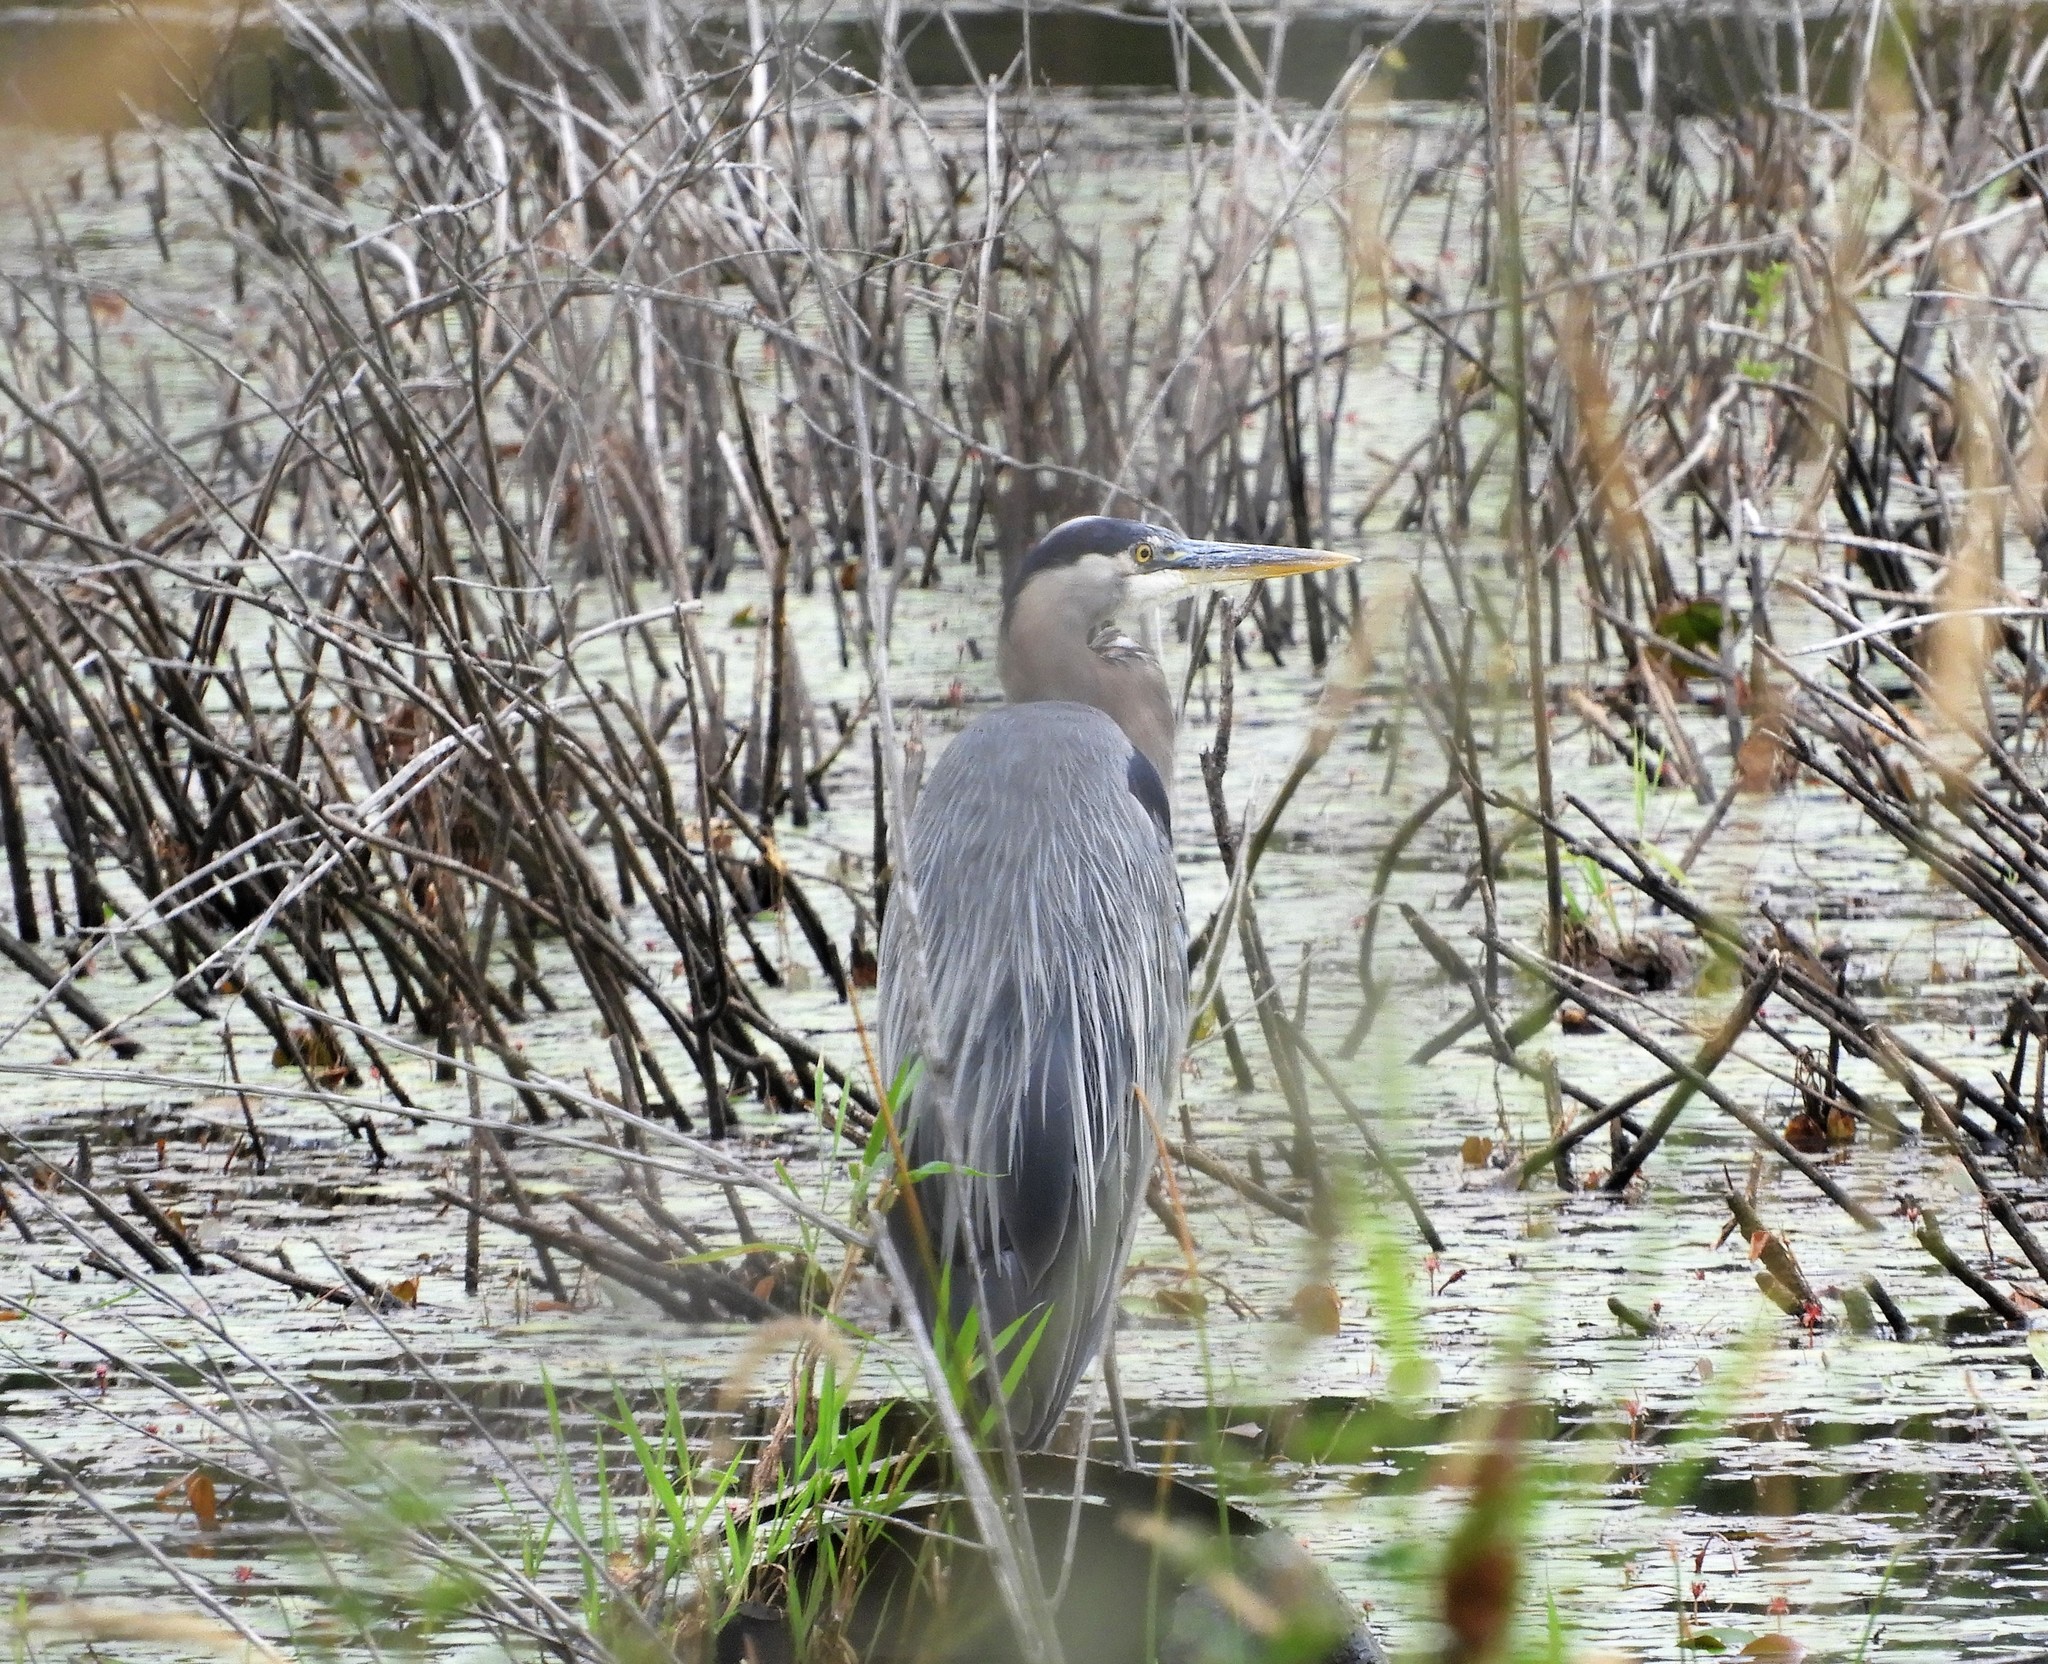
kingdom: Animalia
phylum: Chordata
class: Aves
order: Pelecaniformes
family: Ardeidae
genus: Ardea
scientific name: Ardea herodias
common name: Great blue heron
